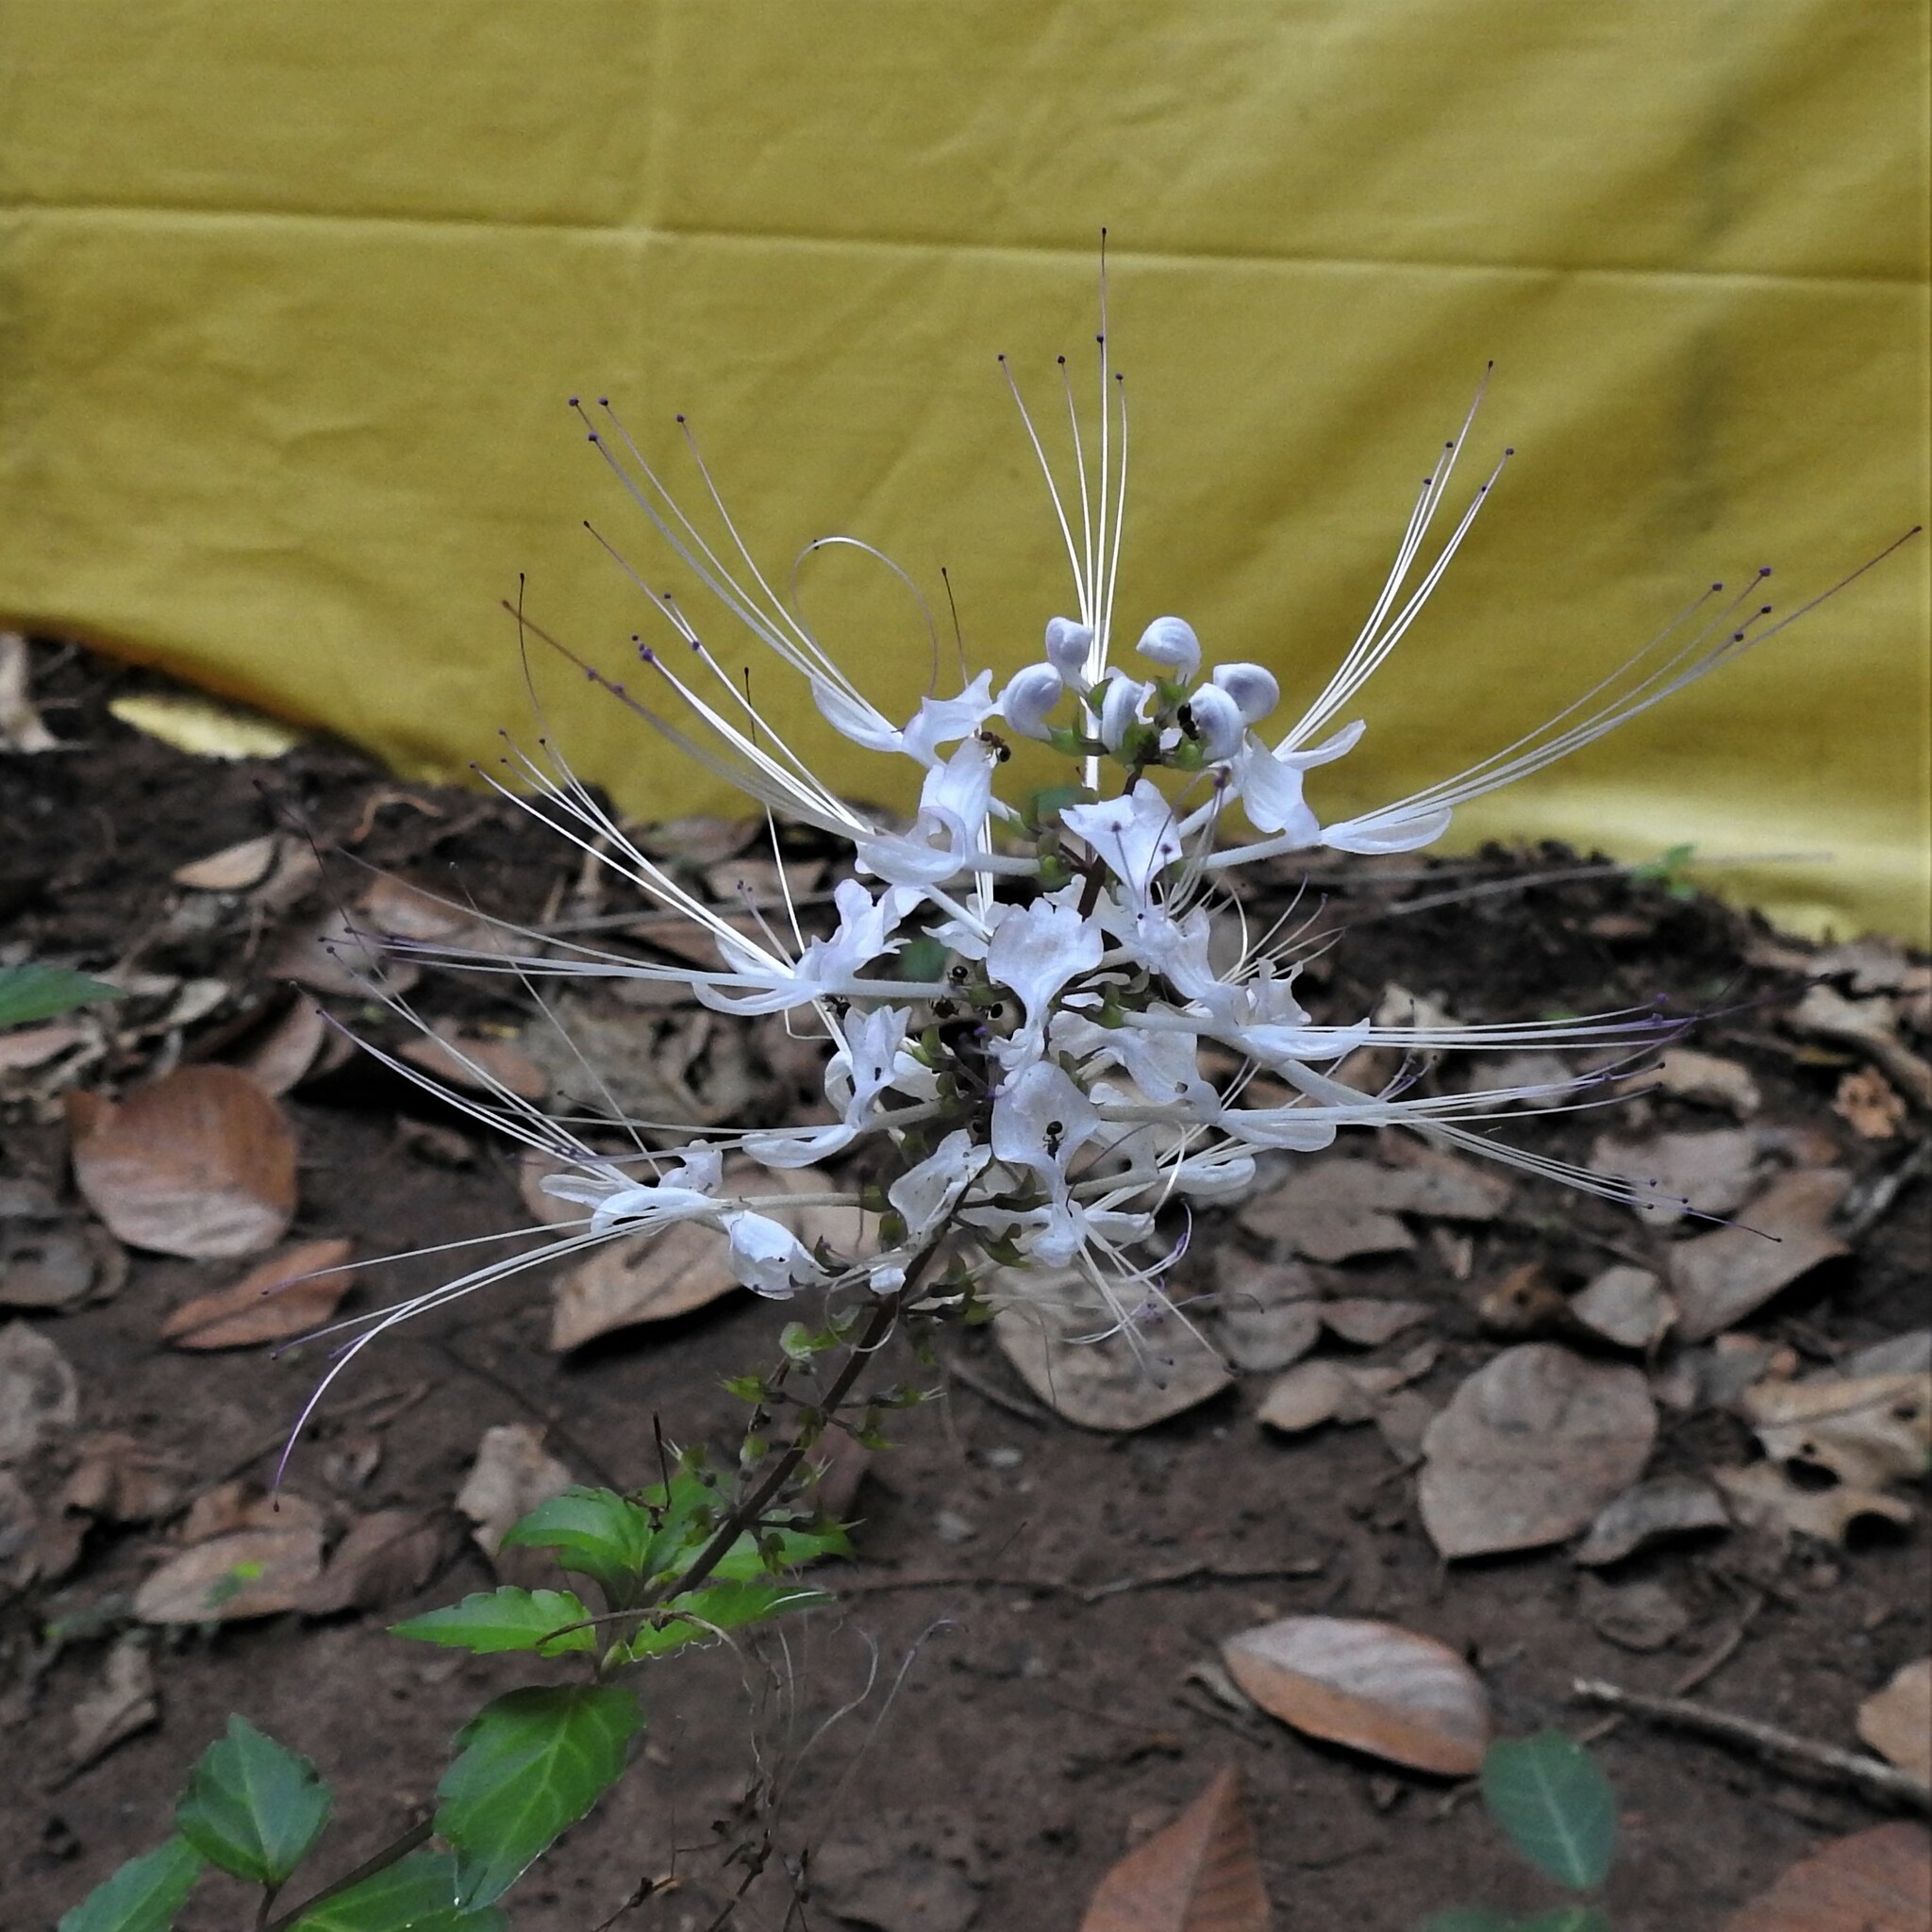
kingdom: Plantae
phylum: Tracheophyta
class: Magnoliopsida
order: Lamiales
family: Lamiaceae
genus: Orthosiphon
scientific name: Orthosiphon aristatus
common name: Whiskerplant
